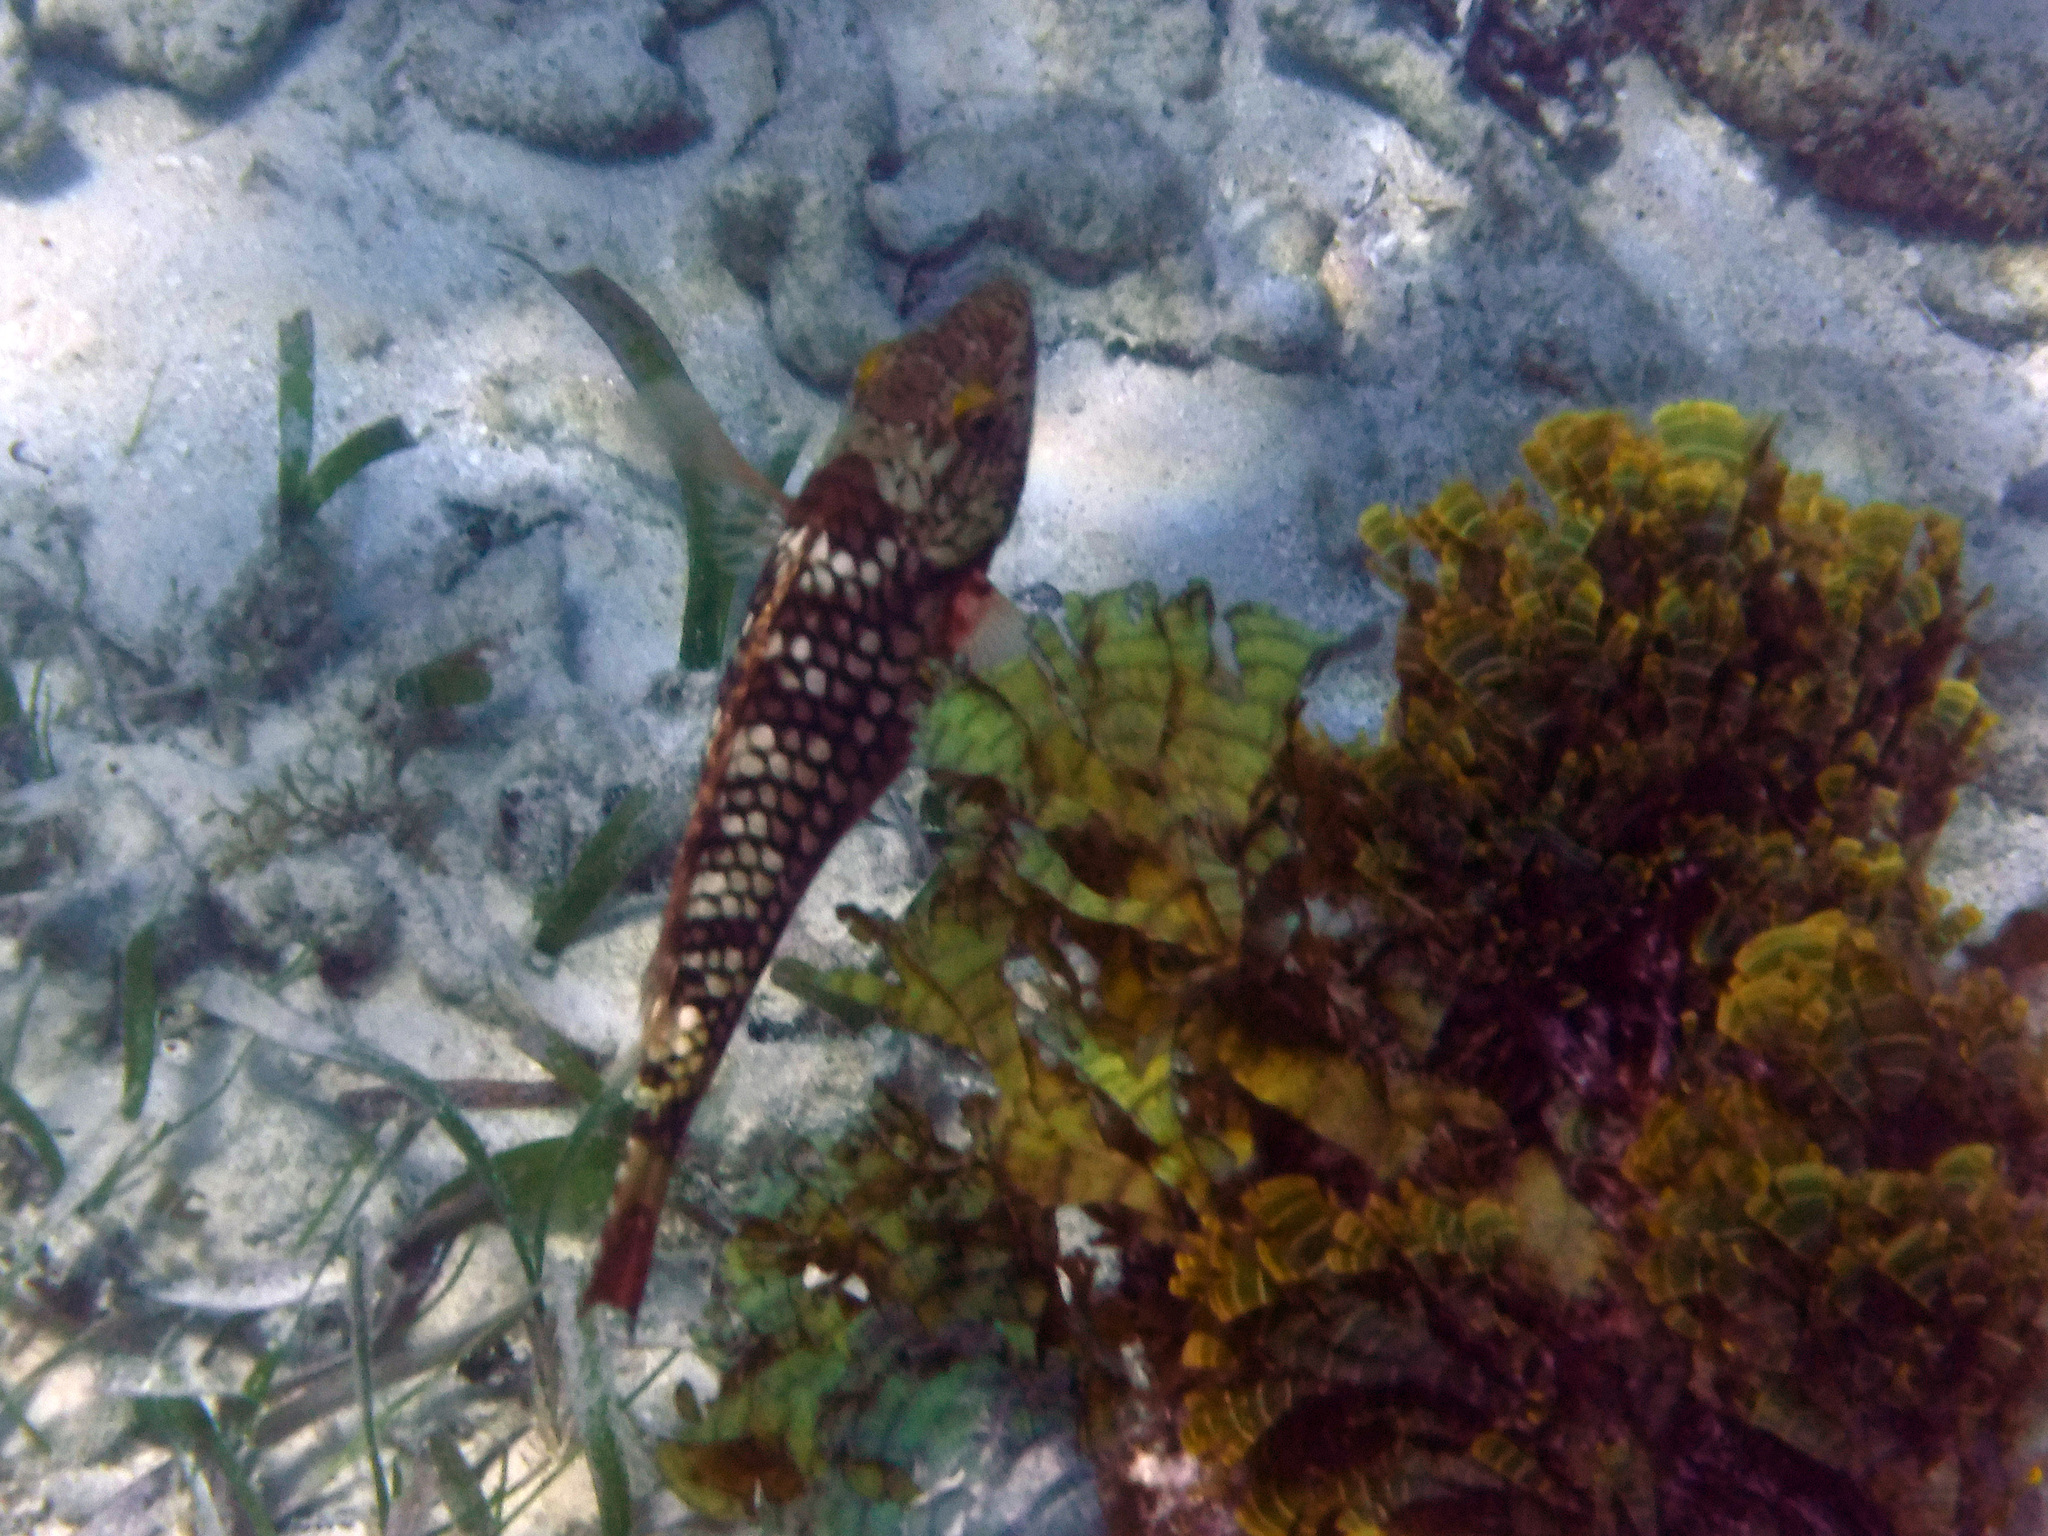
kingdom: Animalia
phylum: Chordata
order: Perciformes
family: Scaridae
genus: Sparisoma
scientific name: Sparisoma viride
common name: Stoplight parrotfish
